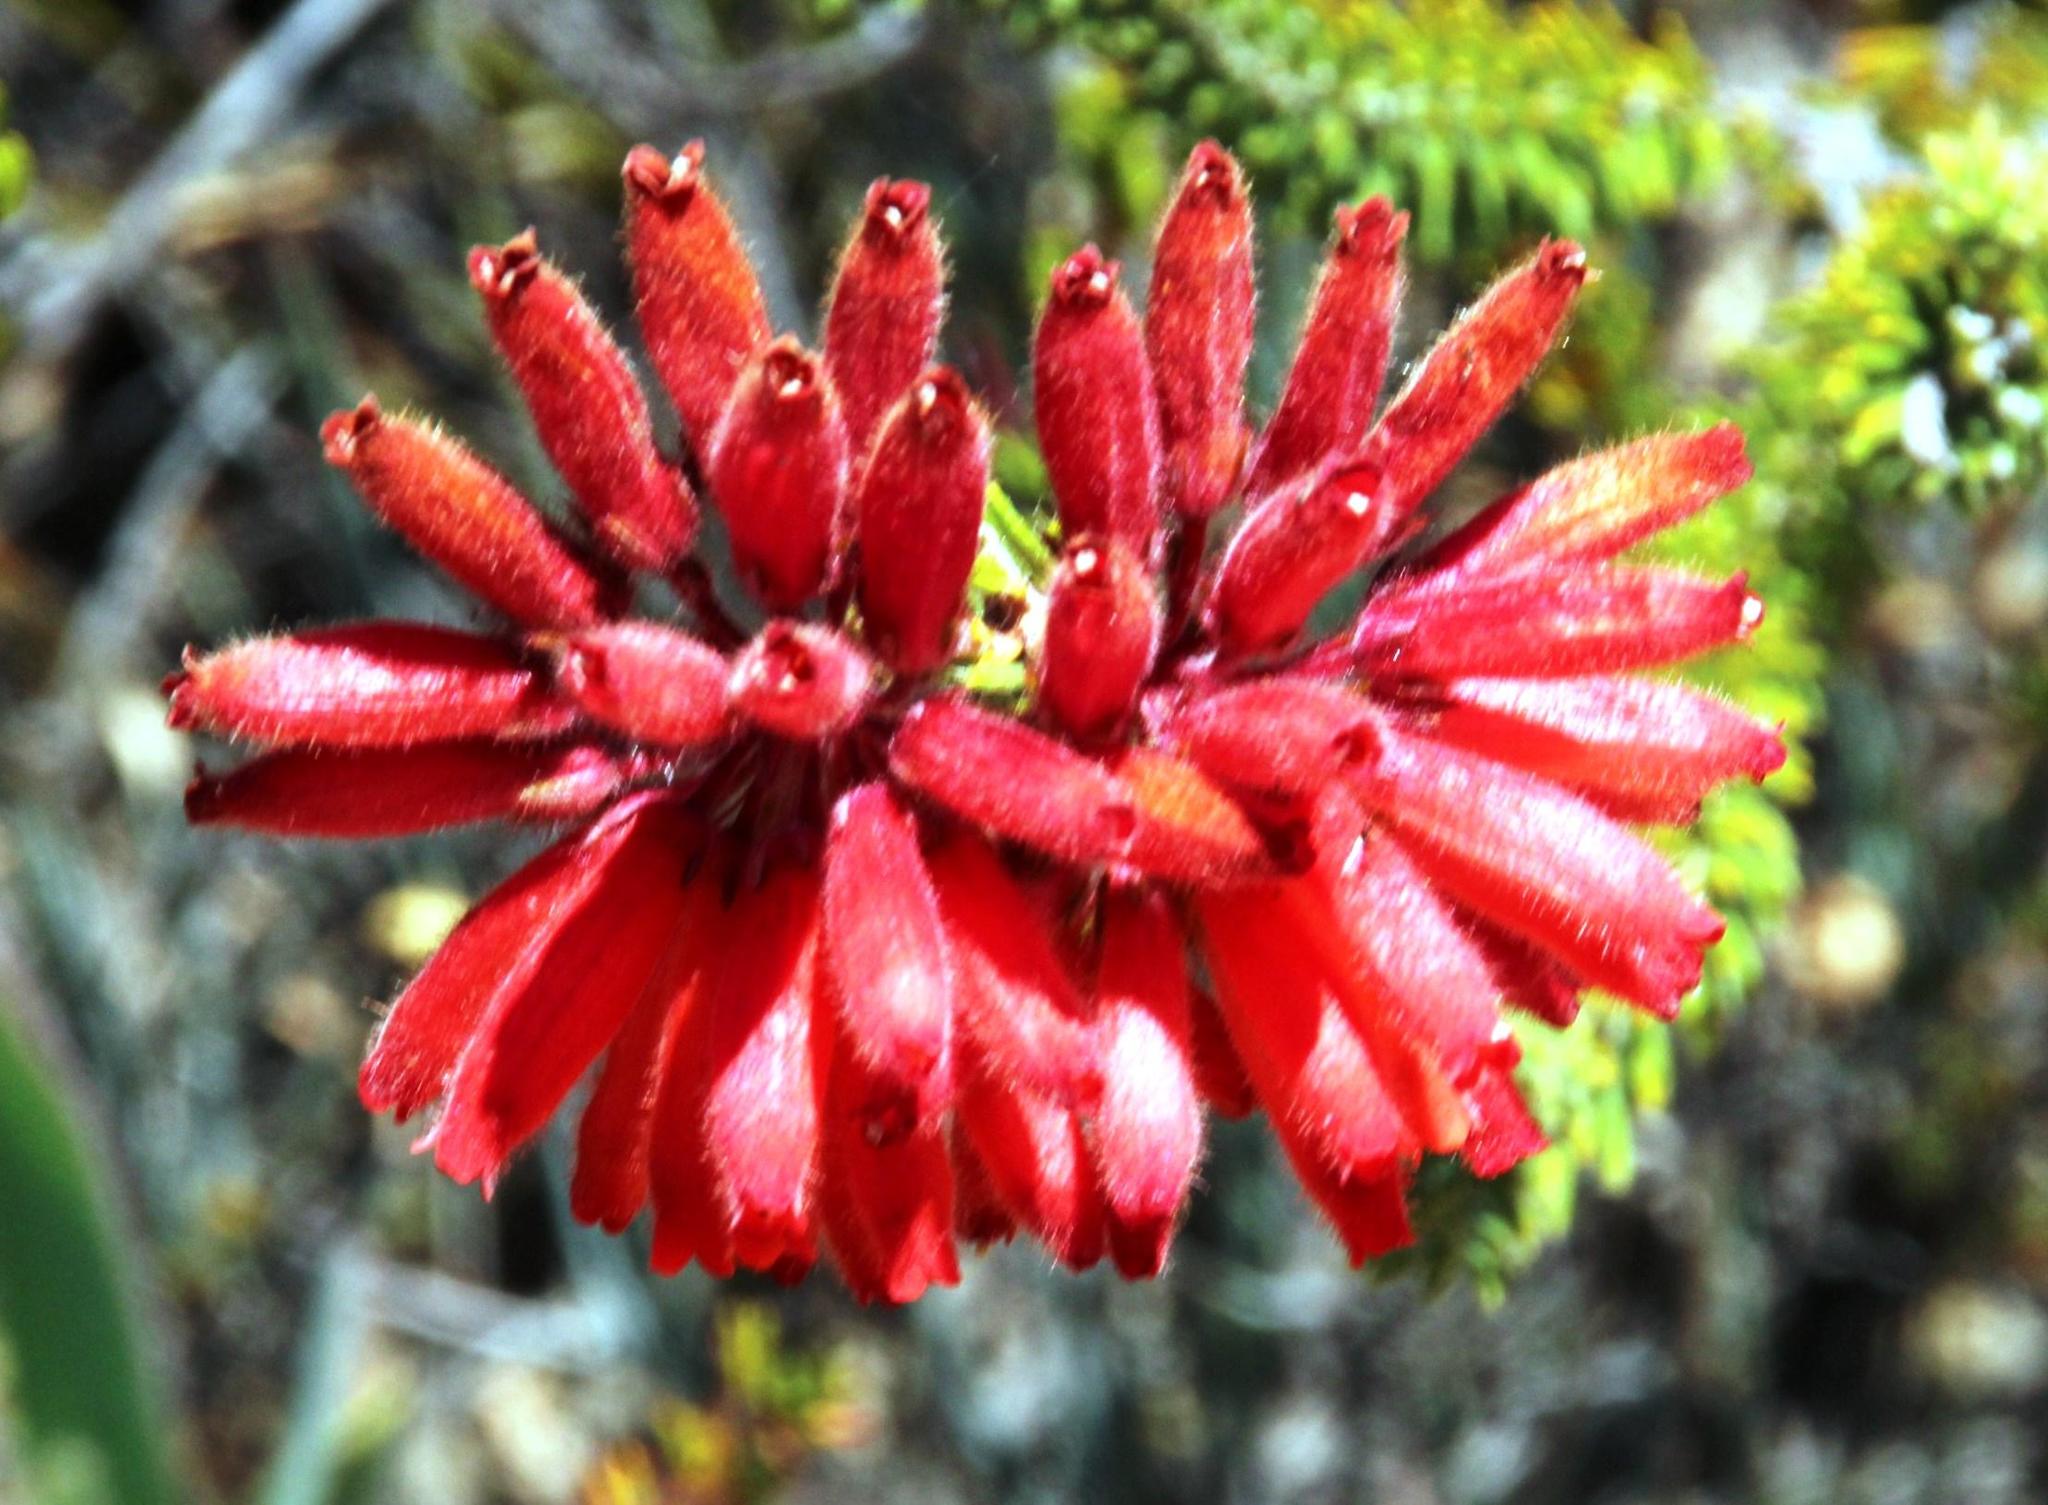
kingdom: Plantae
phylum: Tracheophyta
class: Magnoliopsida
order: Ericales
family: Ericaceae
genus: Erica
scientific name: Erica cerinthoides
